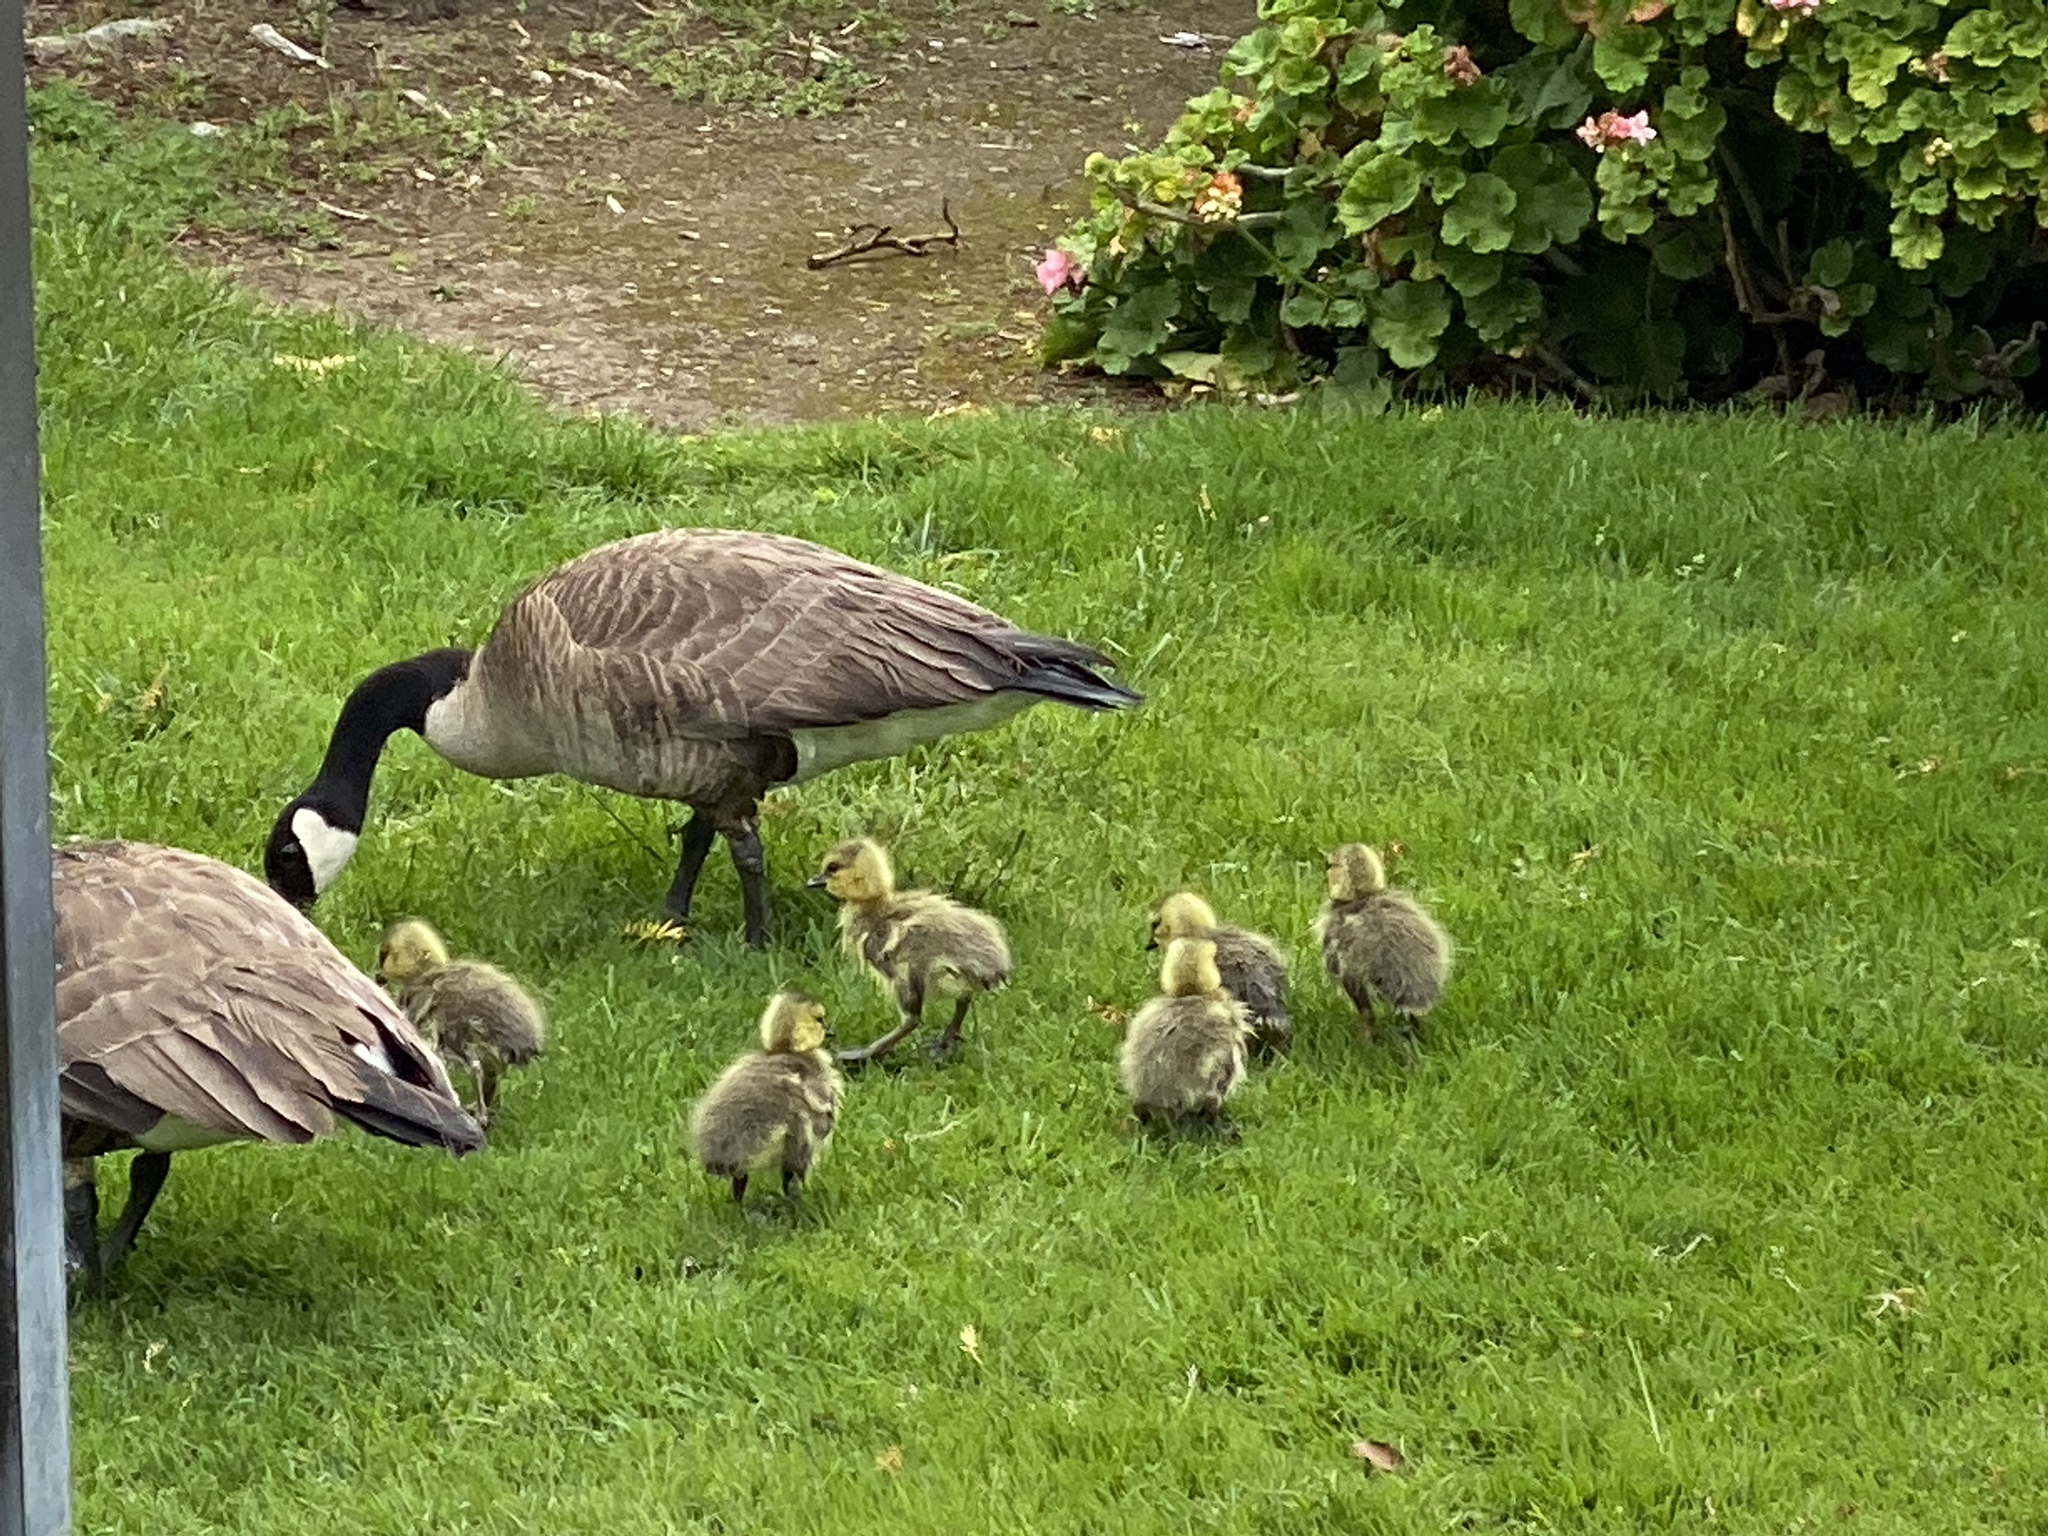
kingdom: Animalia
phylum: Chordata
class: Aves
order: Anseriformes
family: Anatidae
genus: Branta
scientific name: Branta canadensis
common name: Canada goose
